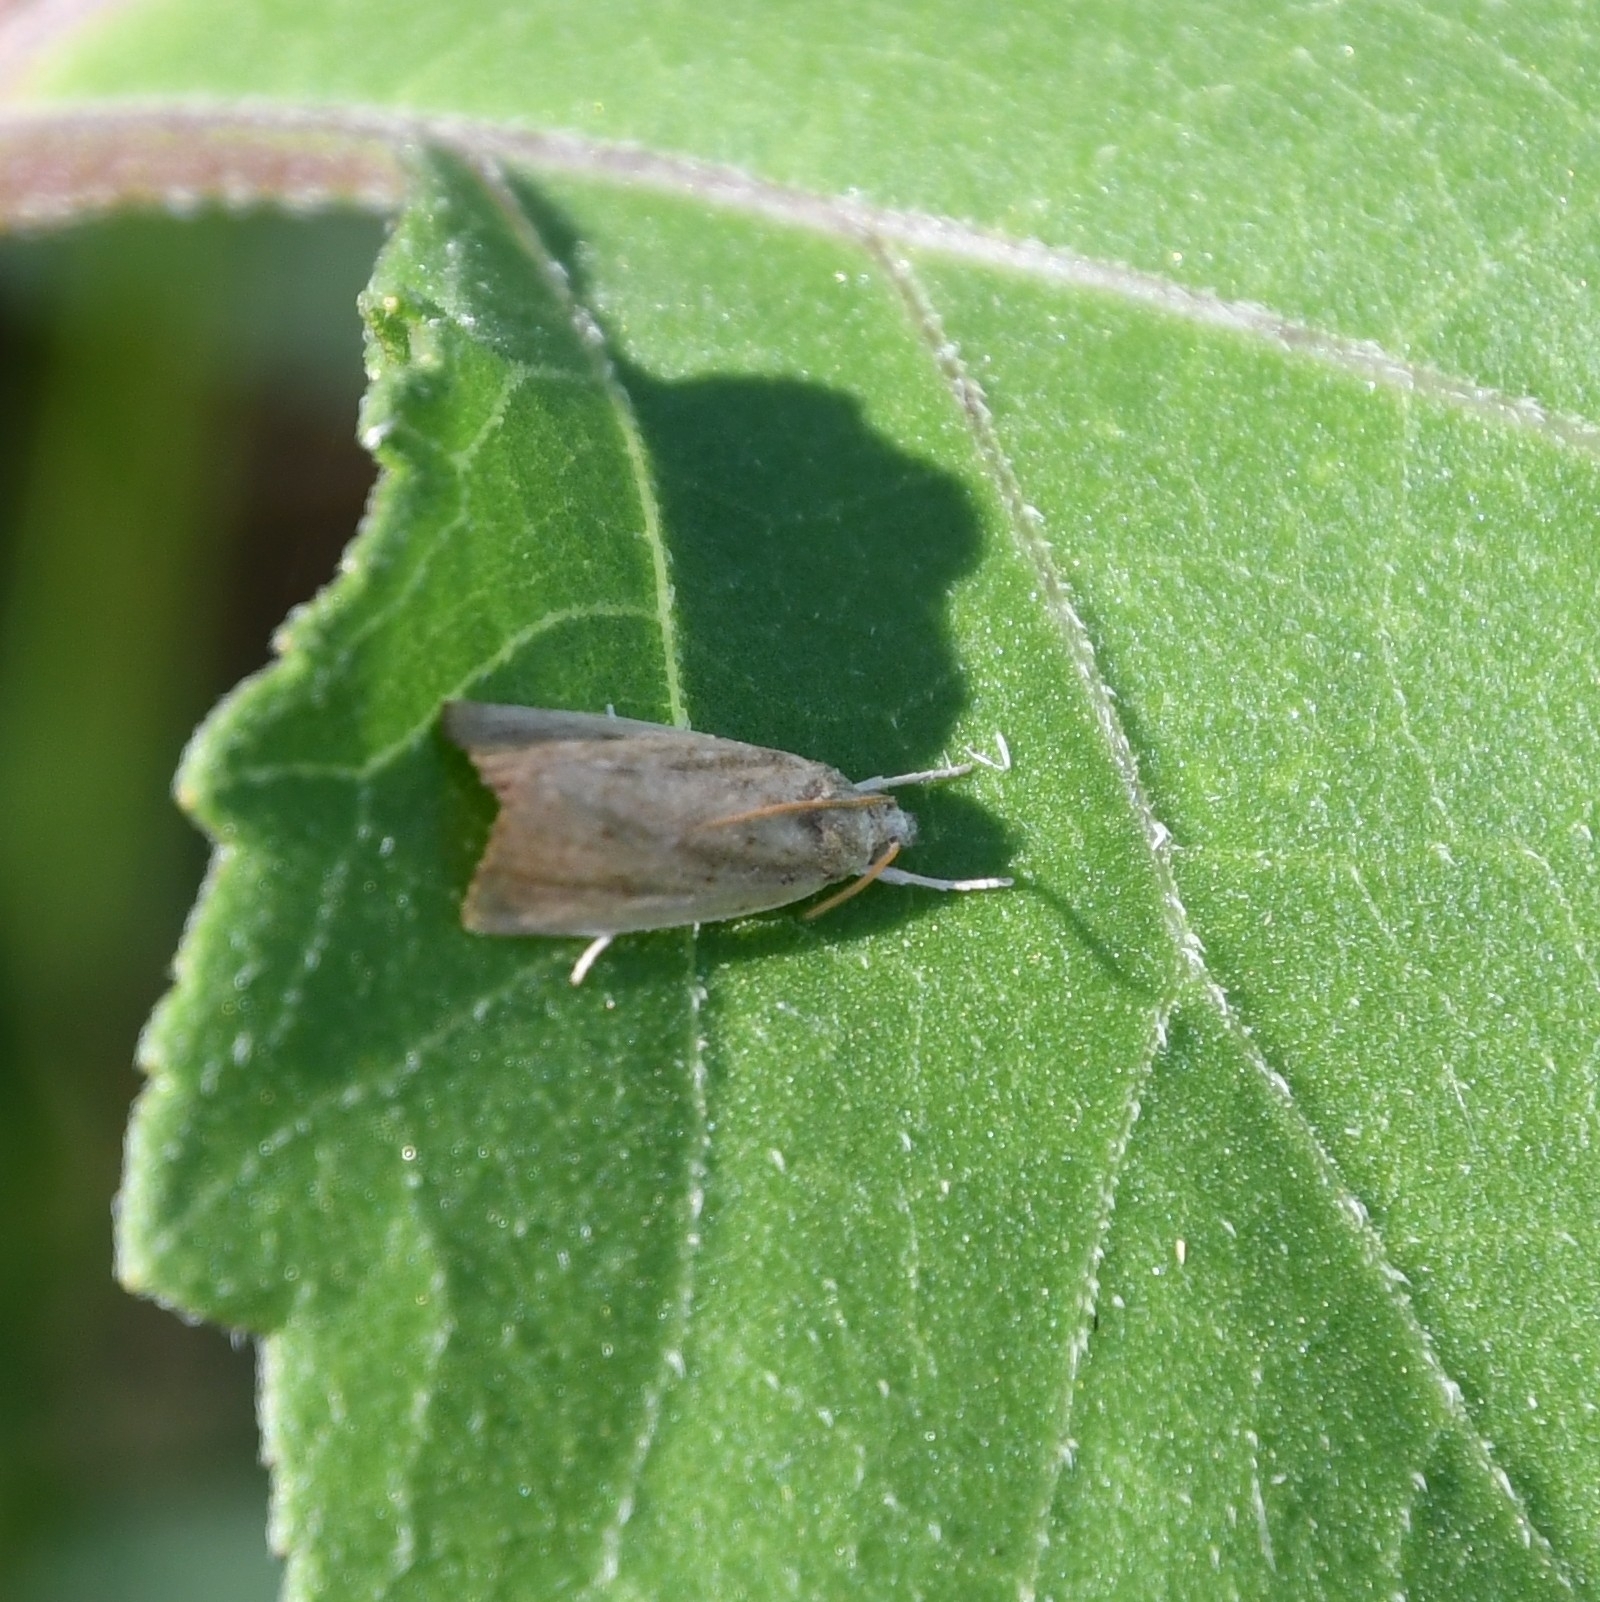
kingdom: Animalia
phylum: Arthropoda
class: Insecta
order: Lepidoptera
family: Crambidae
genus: Calamotropha
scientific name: Calamotropha paludella
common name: Bulrush veneer
